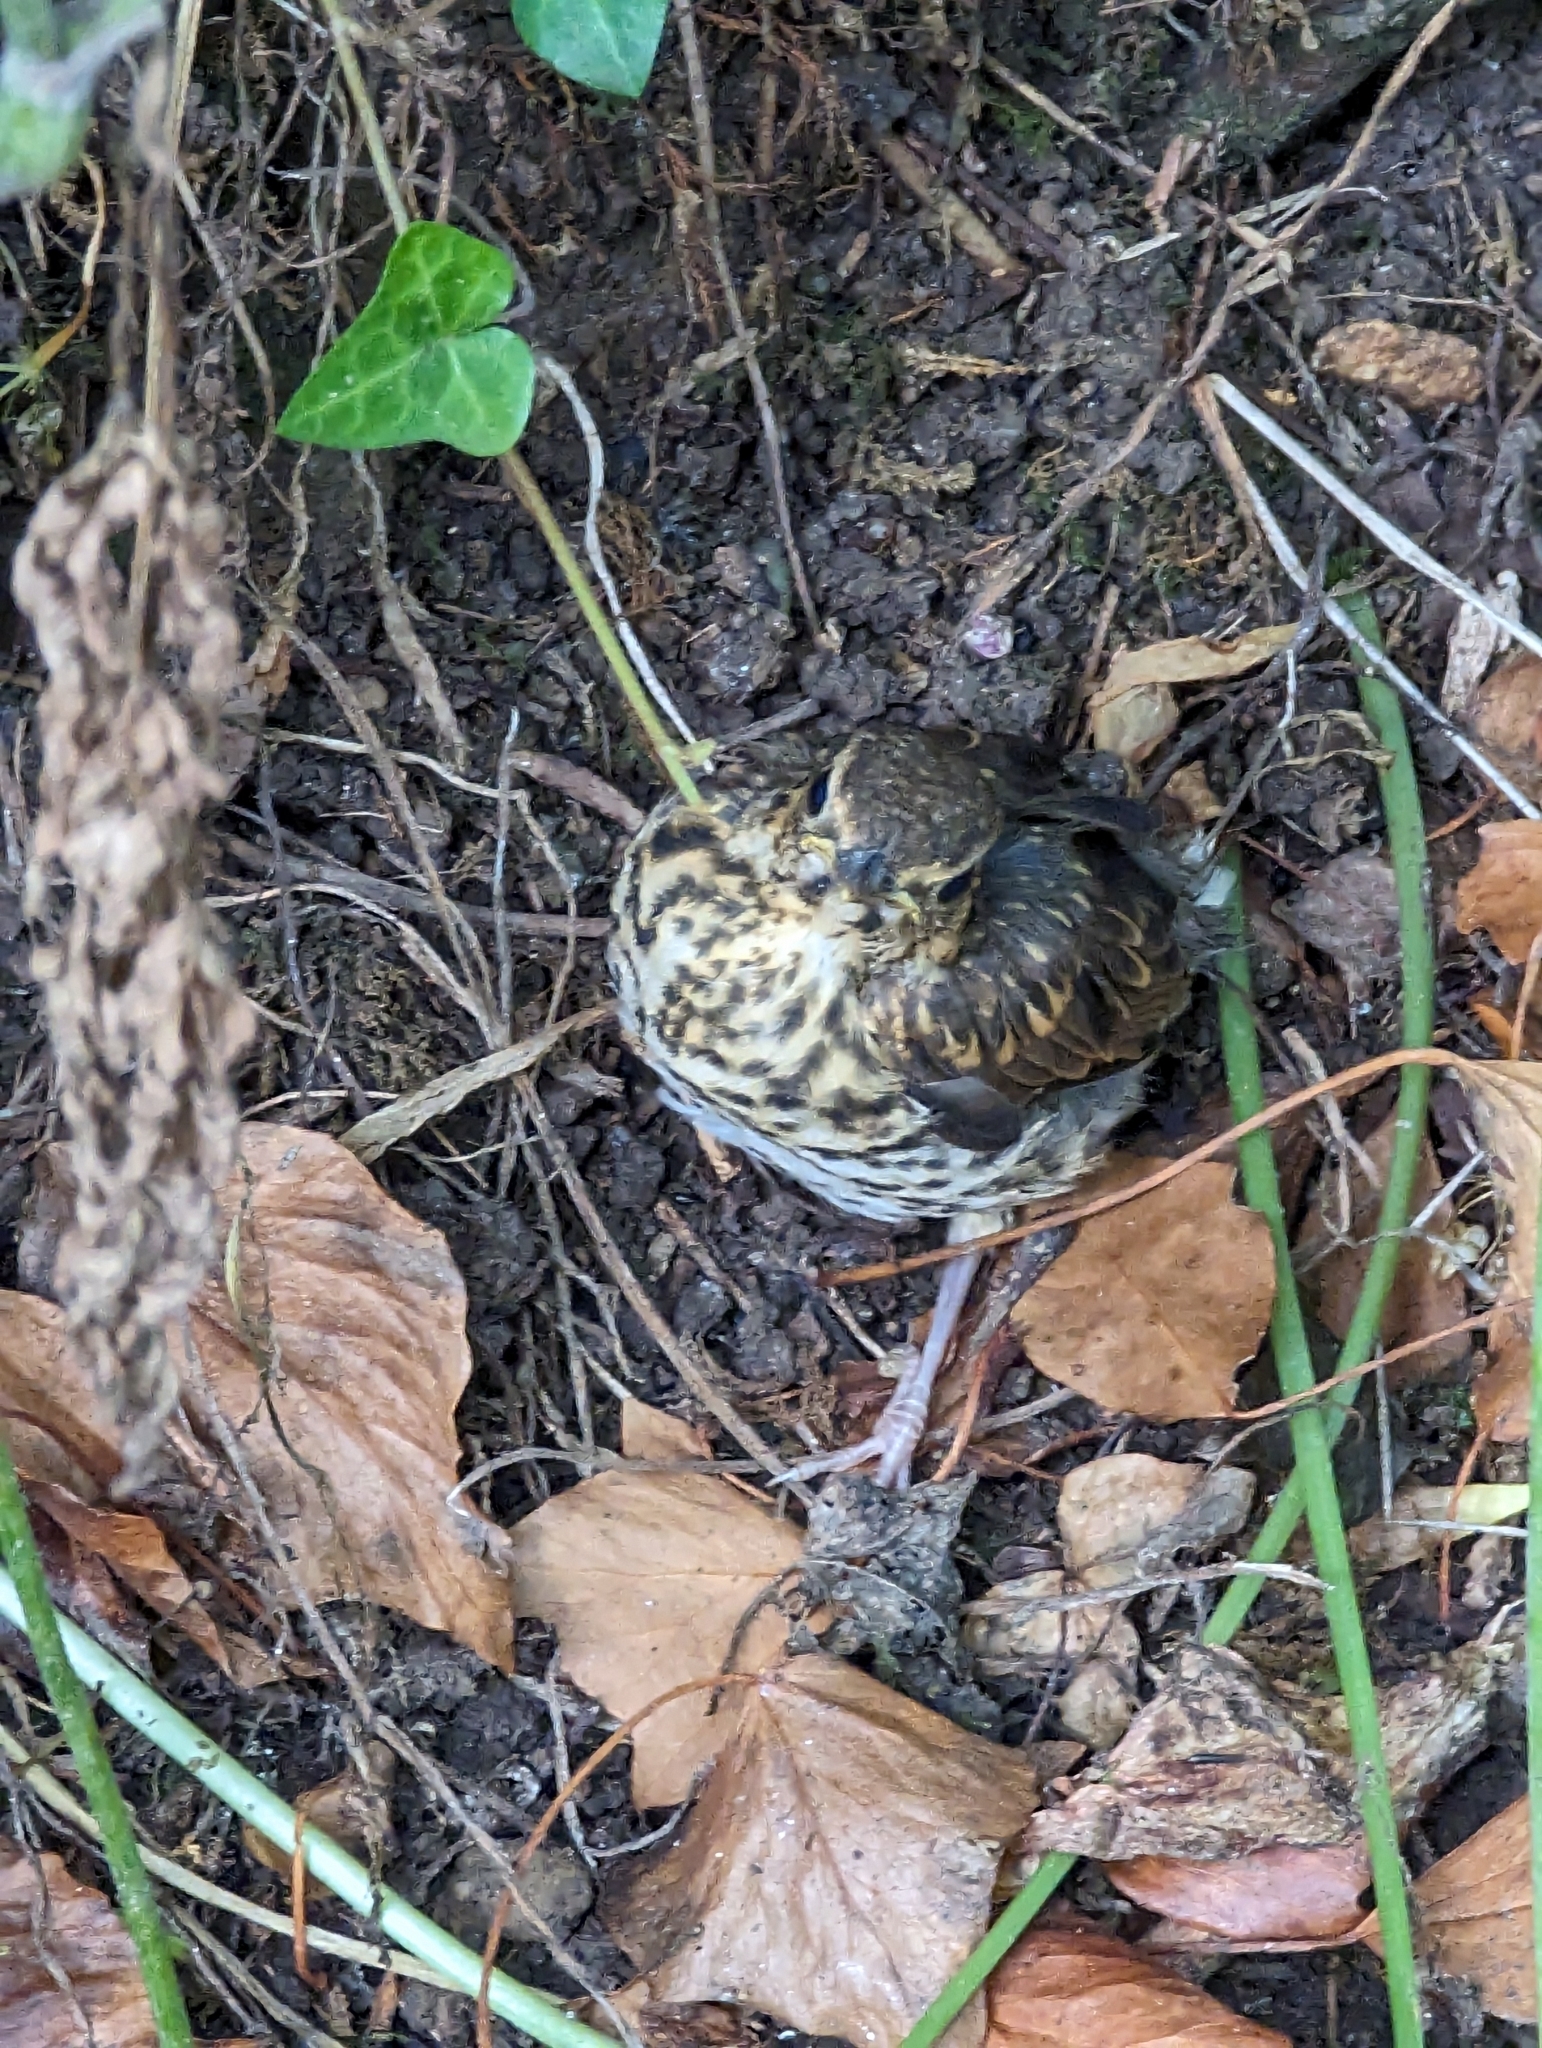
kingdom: Animalia
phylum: Chordata
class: Aves
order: Passeriformes
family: Turdidae
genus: Turdus
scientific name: Turdus philomelos
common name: Song thrush
